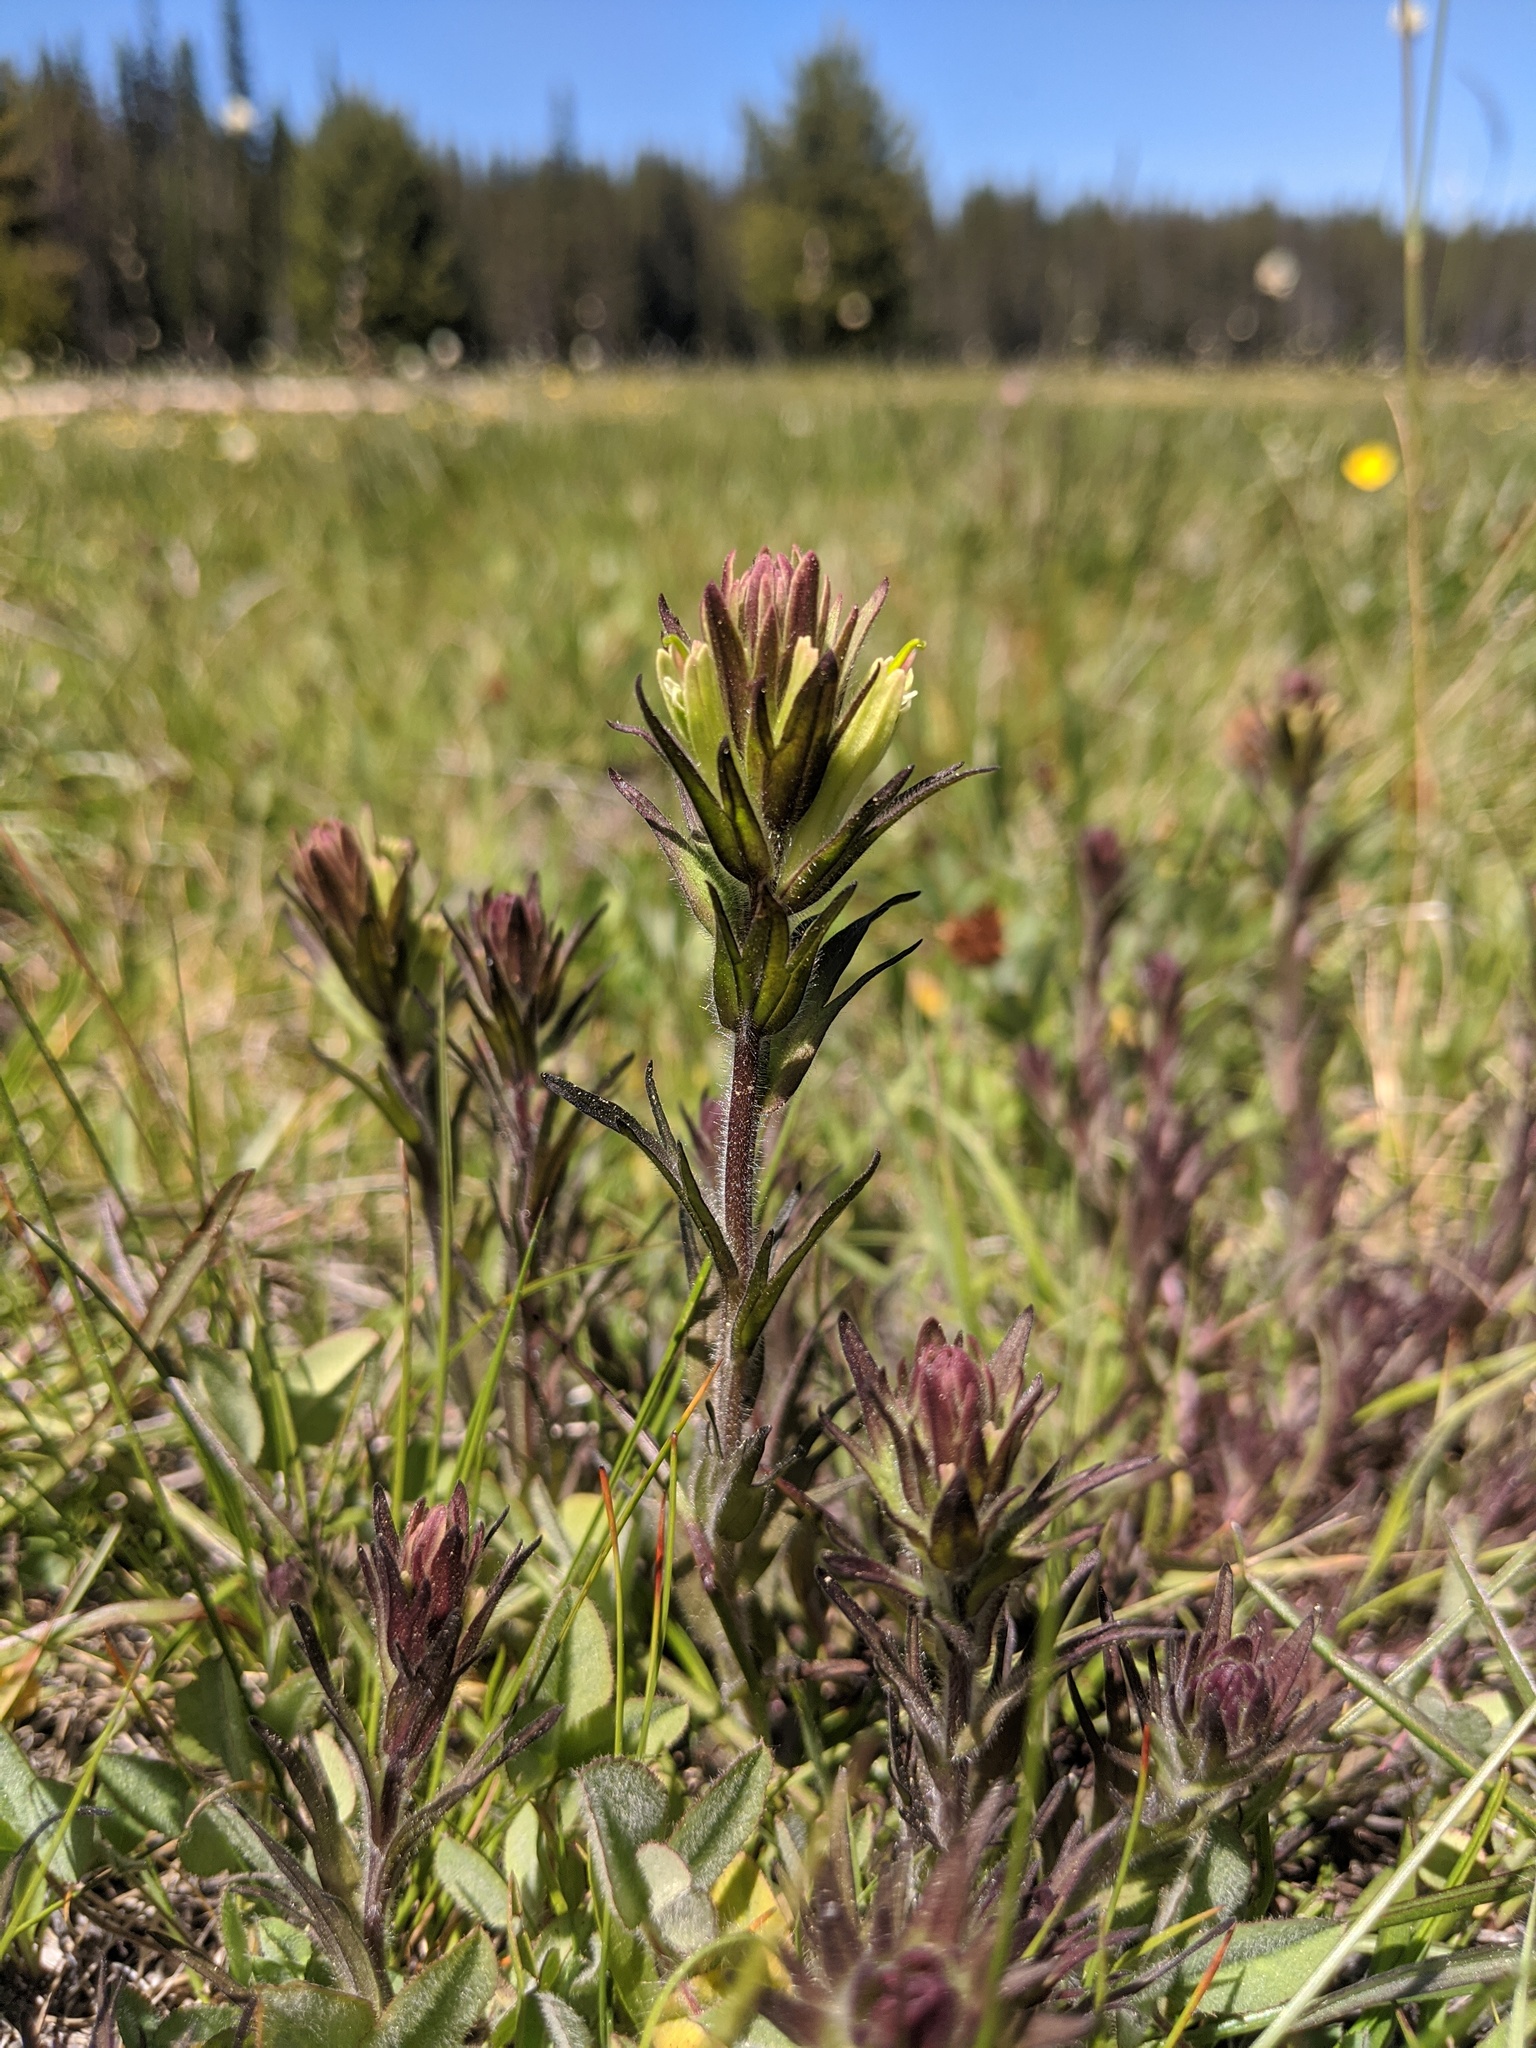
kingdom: Plantae
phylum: Tracheophyta
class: Magnoliopsida
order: Lamiales
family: Orobanchaceae
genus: Castilleja
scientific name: Castilleja collegiorum
